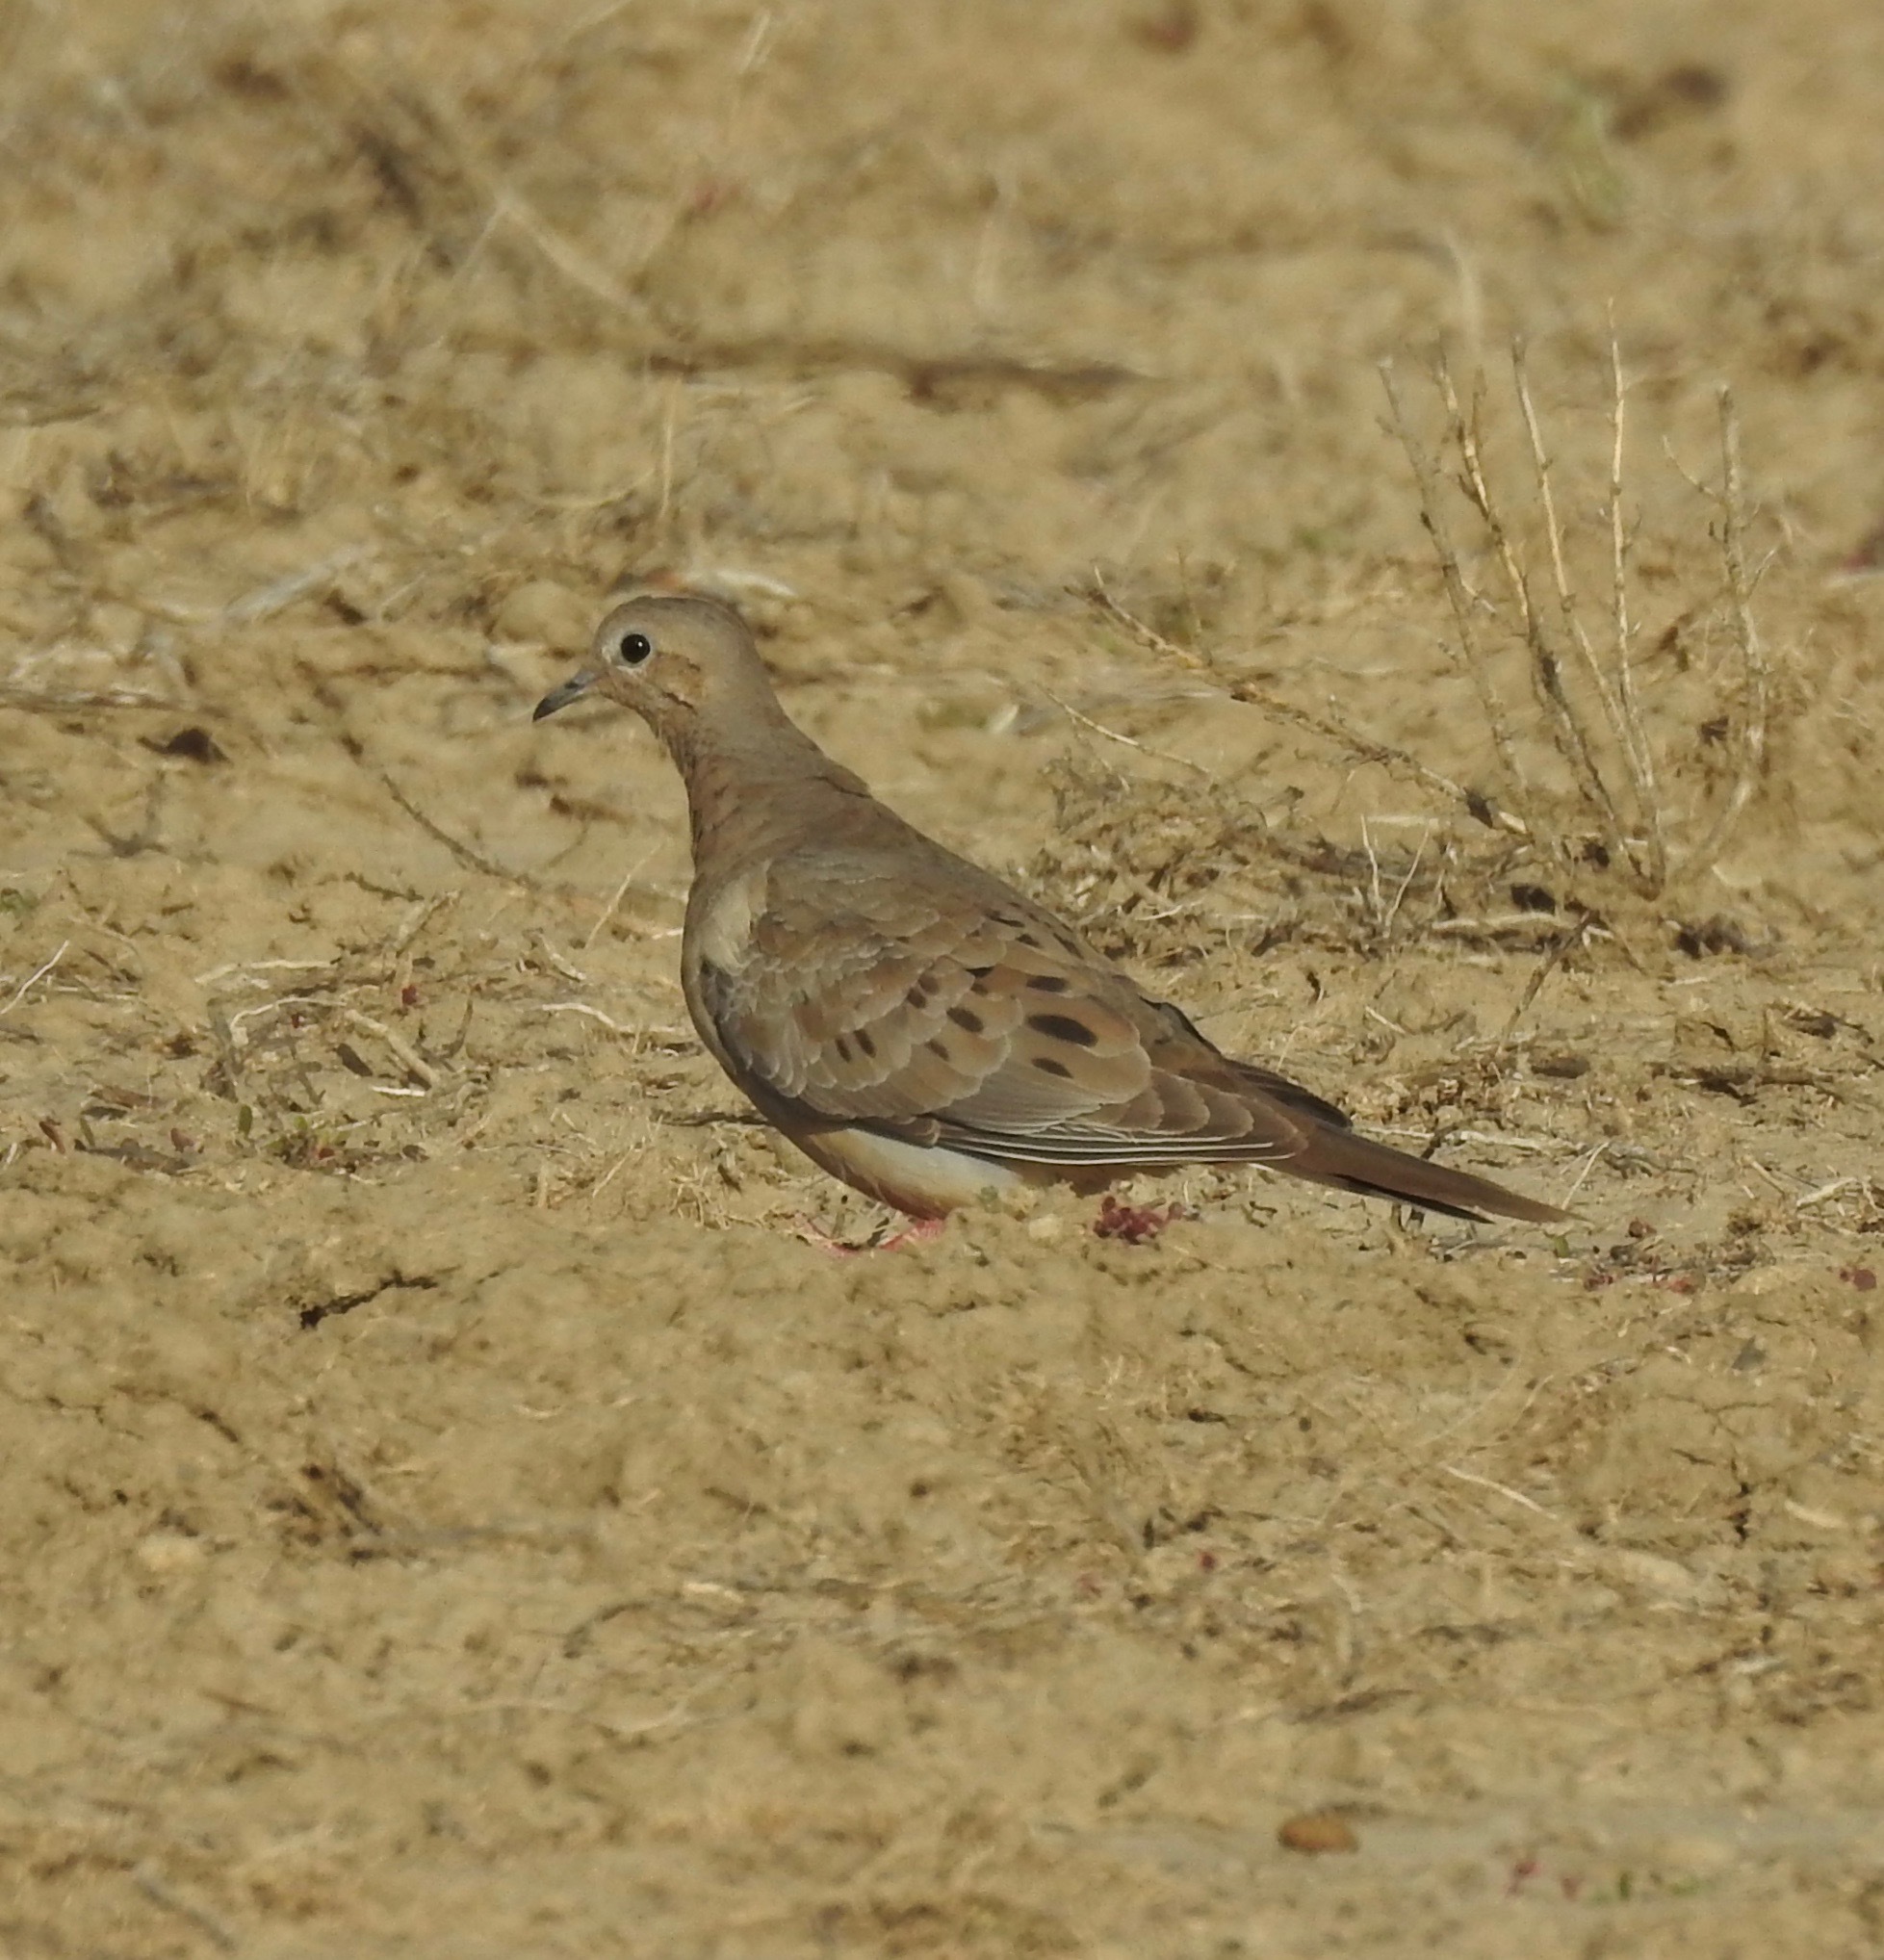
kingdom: Animalia
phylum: Chordata
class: Aves
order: Columbiformes
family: Columbidae
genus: Zenaida
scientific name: Zenaida macroura
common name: Mourning dove
